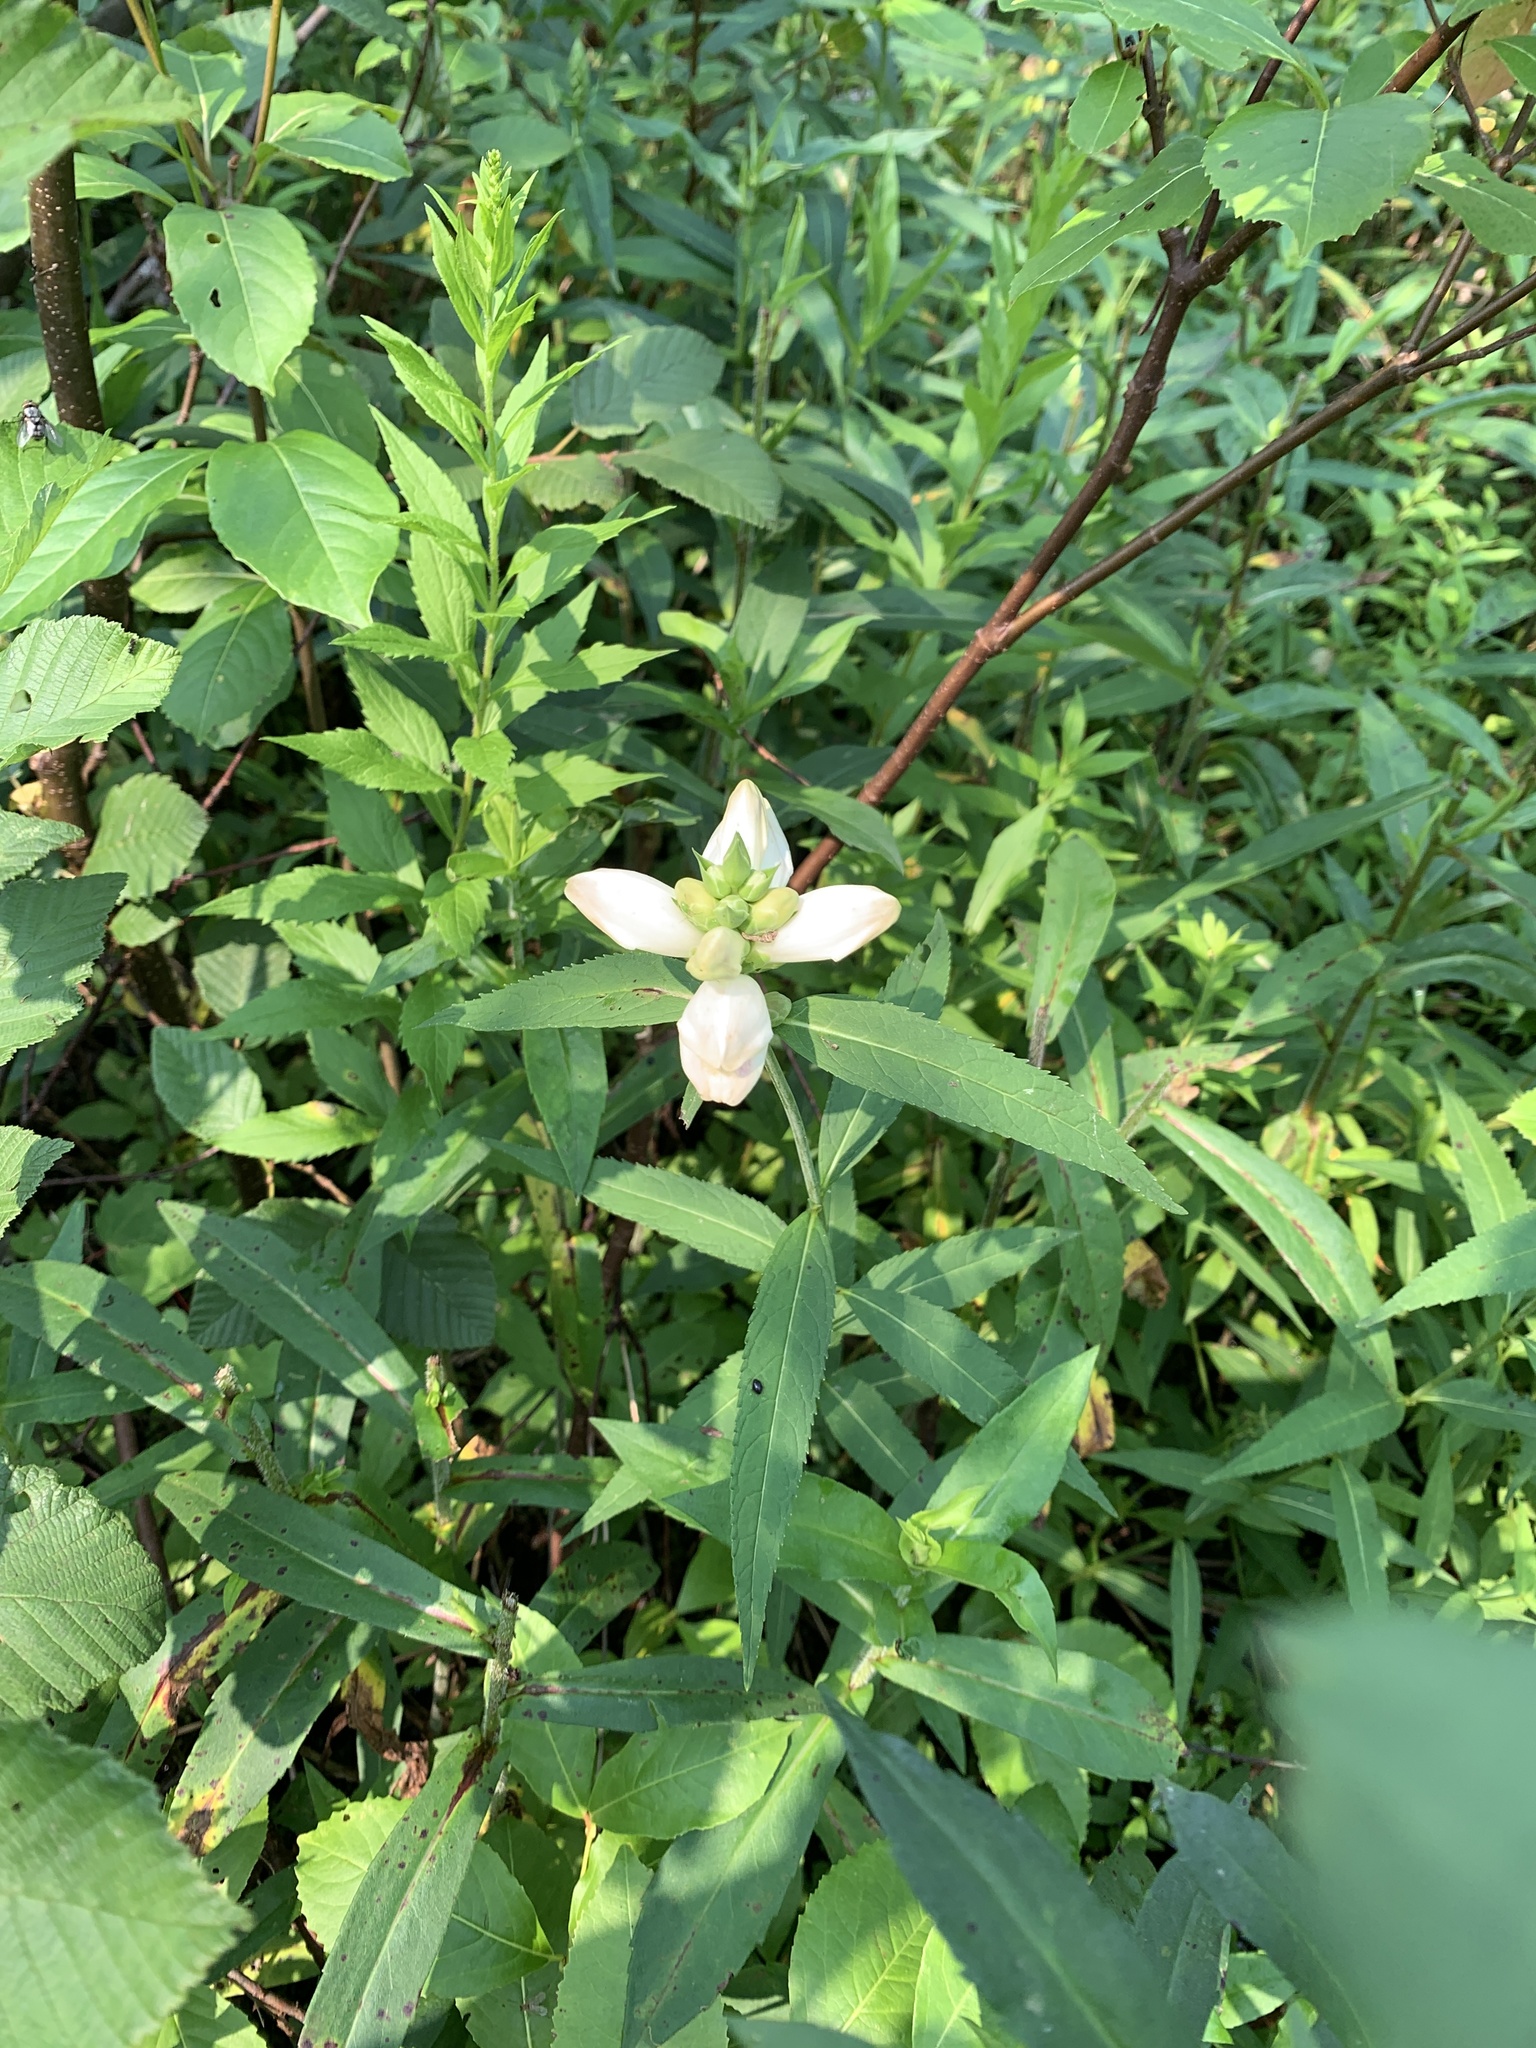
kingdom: Plantae
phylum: Tracheophyta
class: Magnoliopsida
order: Lamiales
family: Plantaginaceae
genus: Chelone
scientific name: Chelone glabra
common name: Snakehead
